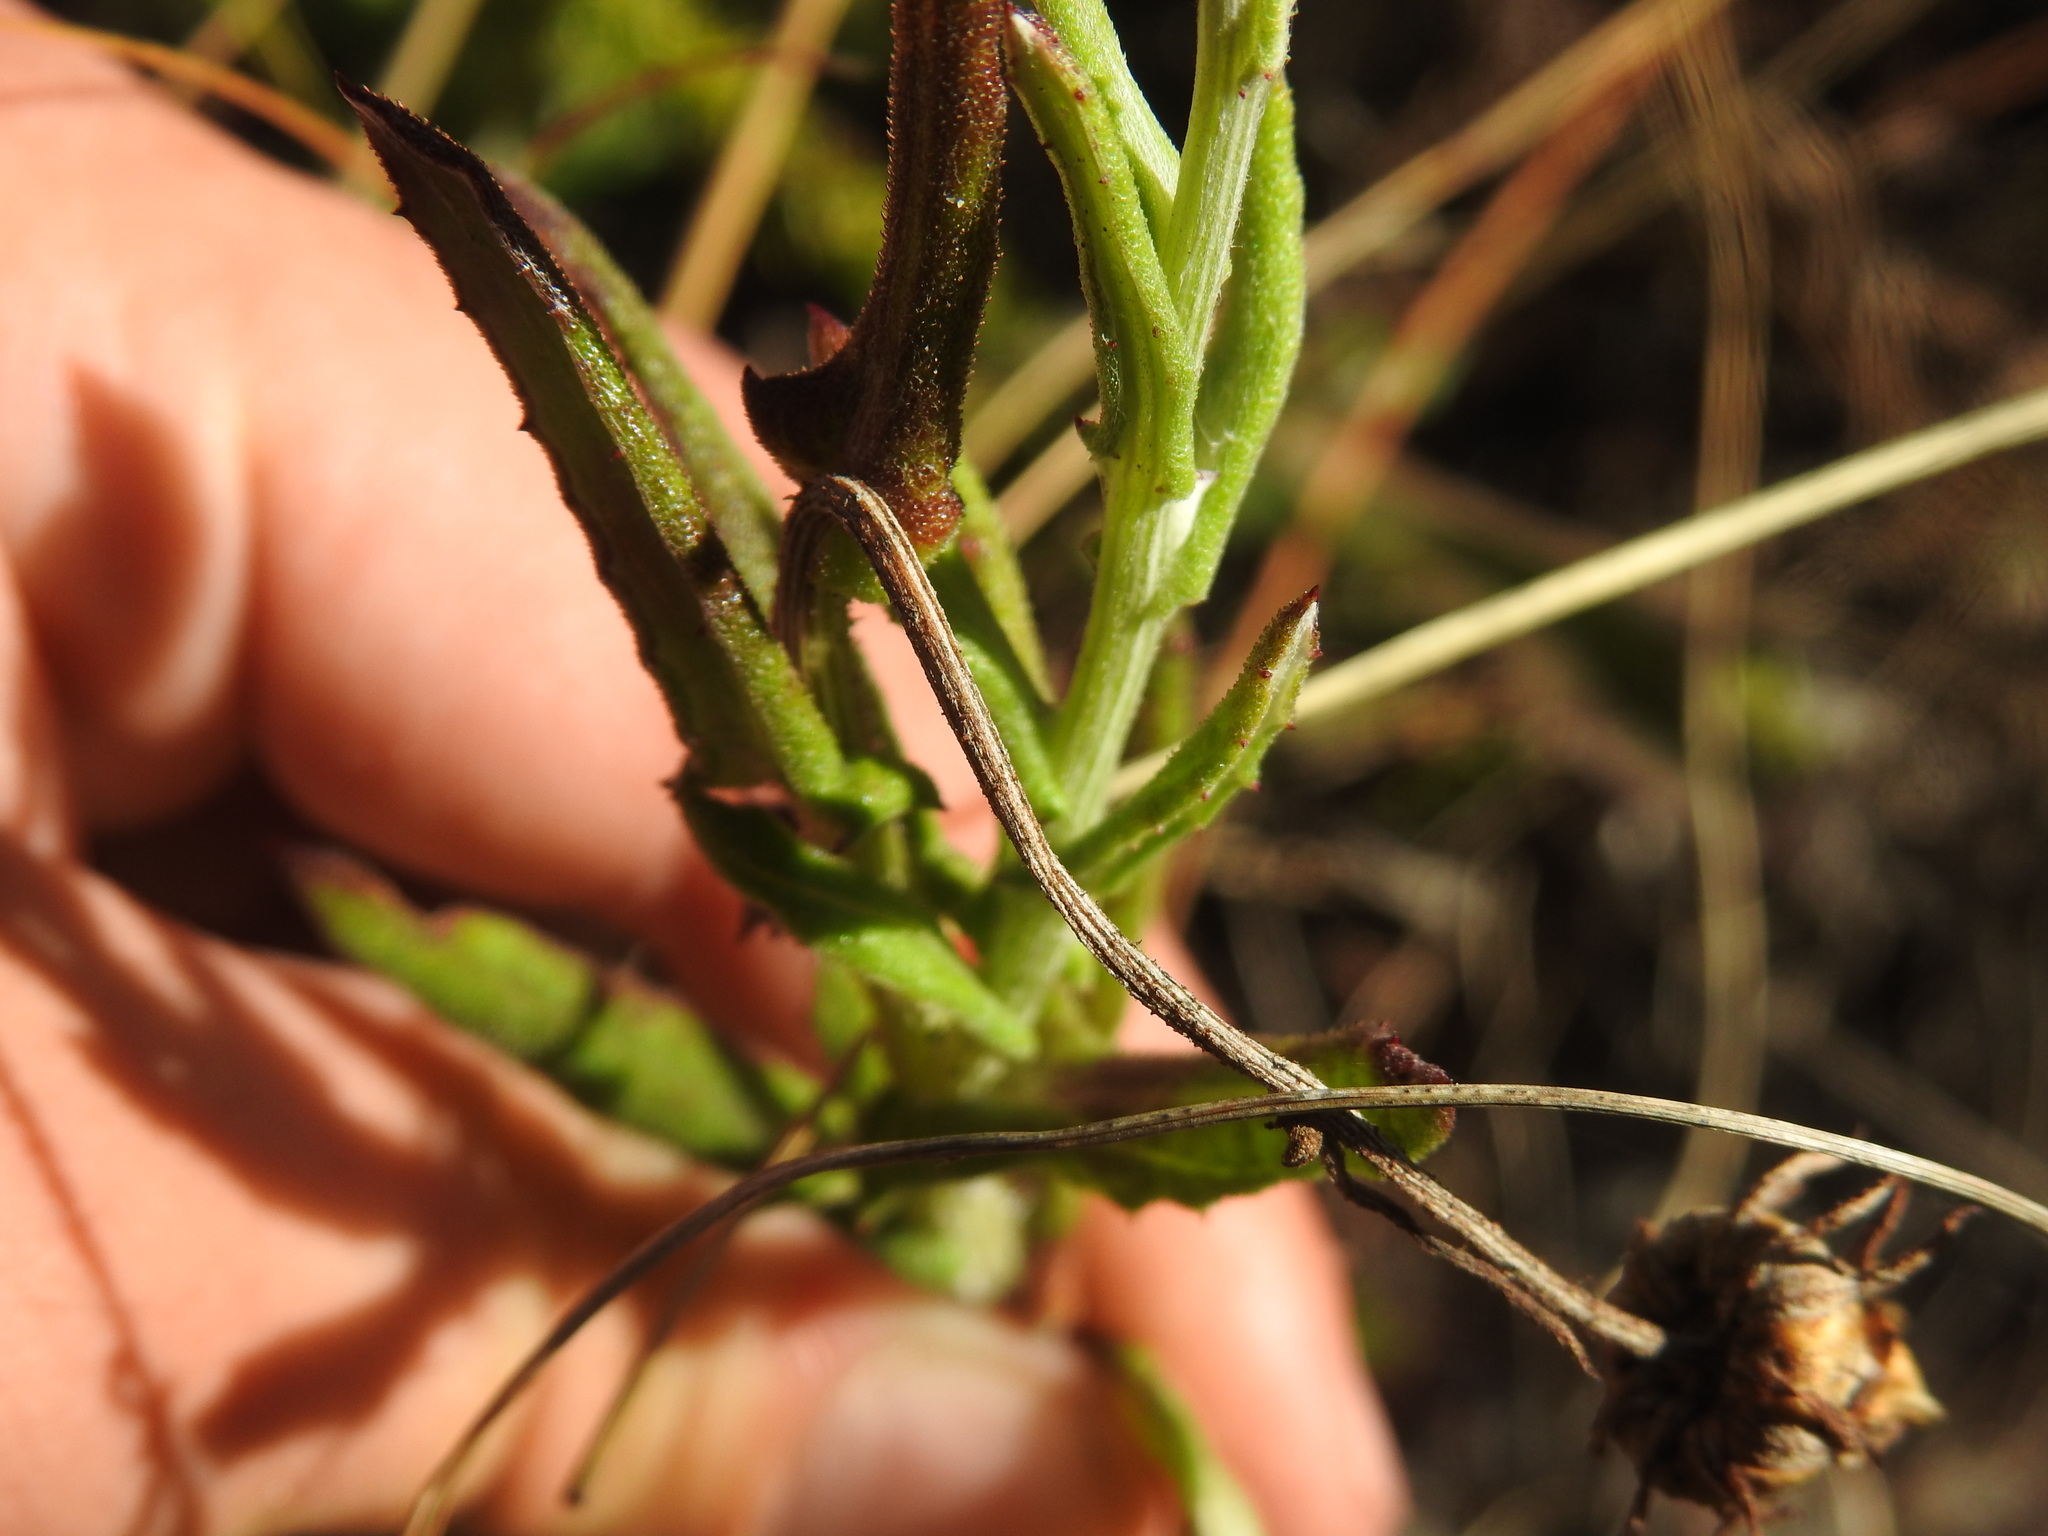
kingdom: Plantae
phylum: Tracheophyta
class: Magnoliopsida
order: Asterales
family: Asteraceae
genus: Arctotis
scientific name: Arctotis scabra
